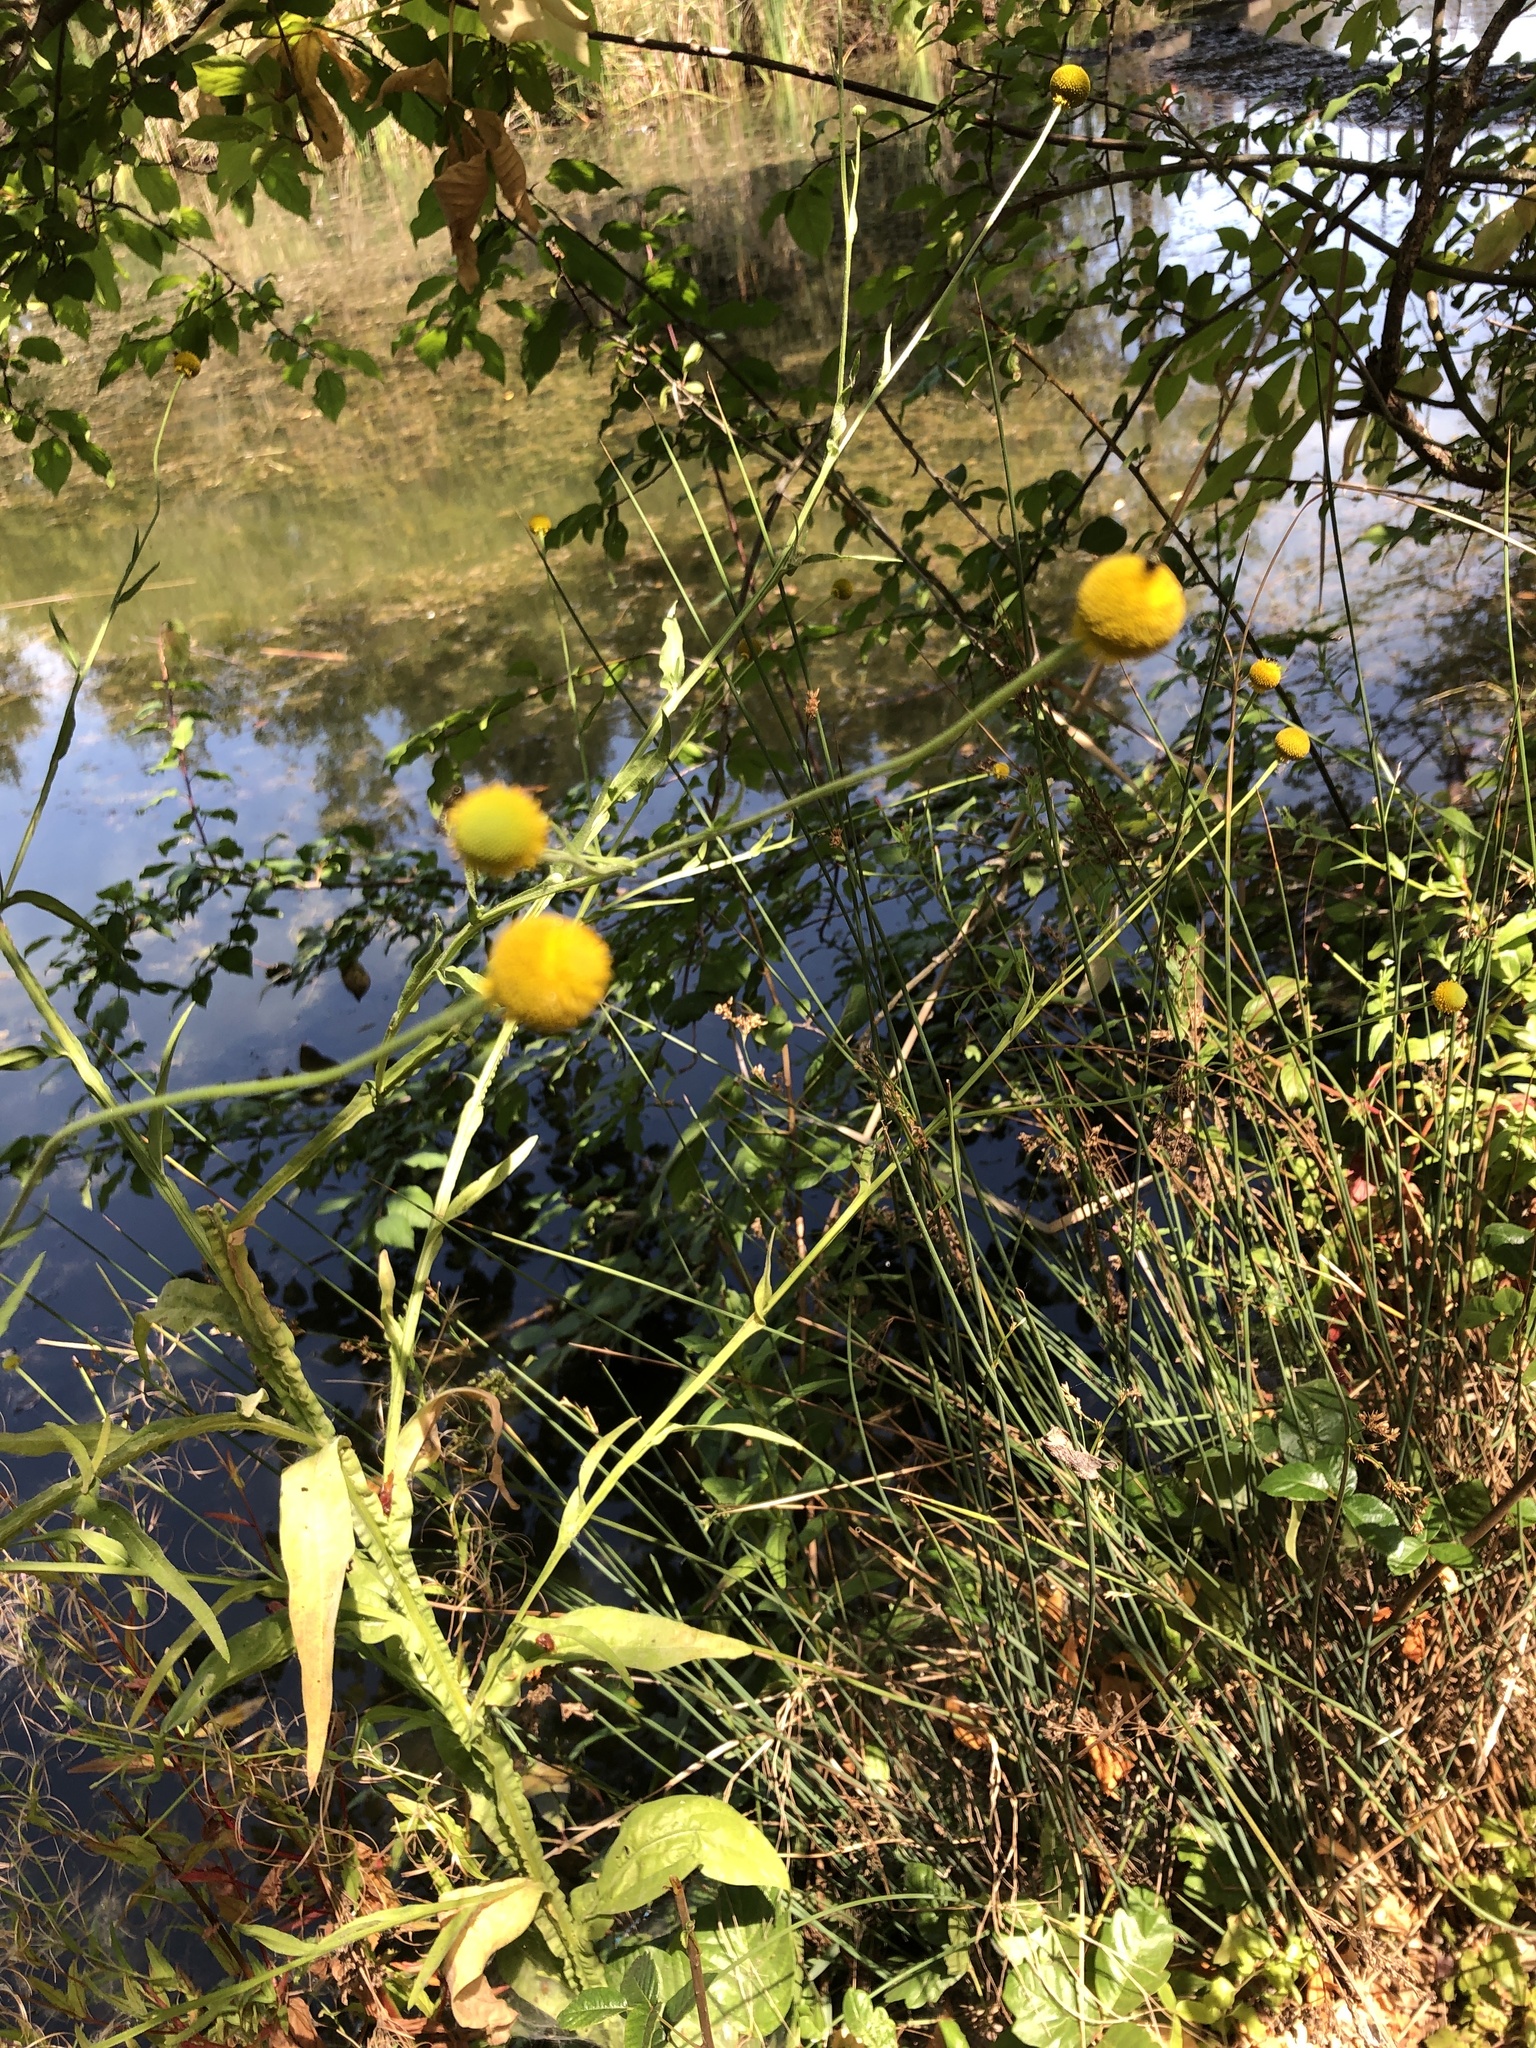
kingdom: Plantae
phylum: Tracheophyta
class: Magnoliopsida
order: Asterales
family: Asteraceae
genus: Cotula
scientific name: Cotula coronopifolia
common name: Buttonweed
